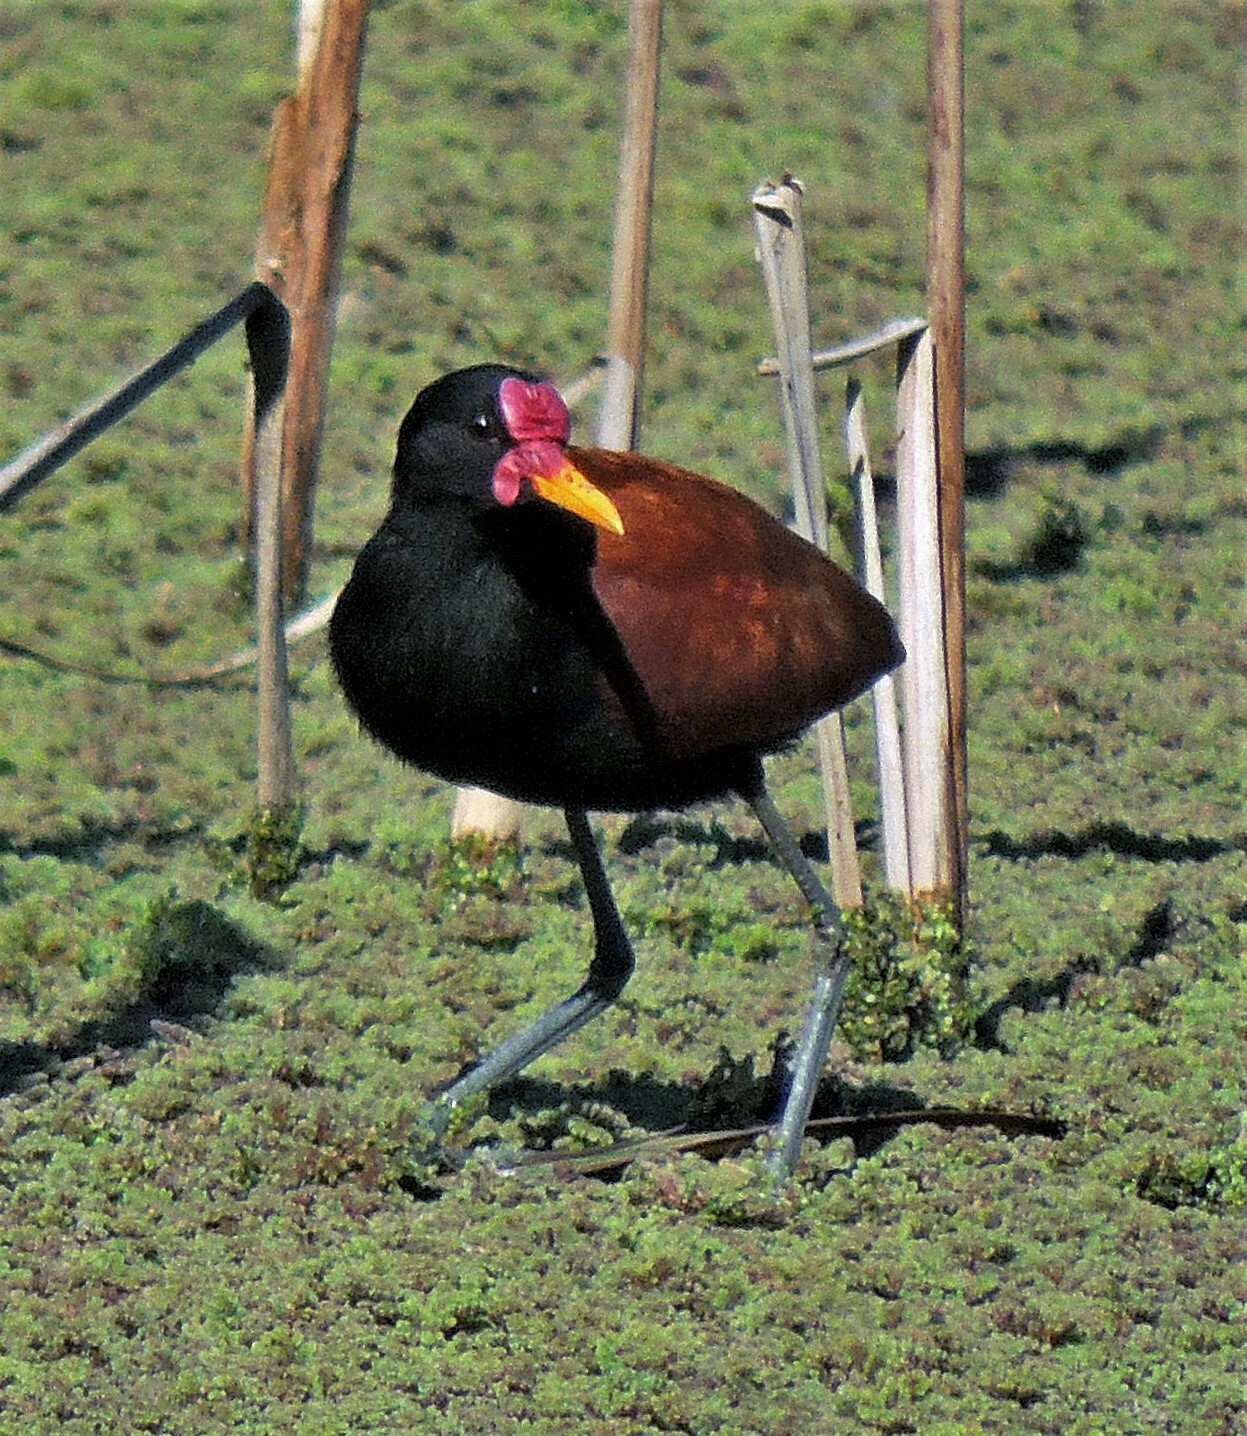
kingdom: Animalia
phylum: Chordata
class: Aves
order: Charadriiformes
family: Jacanidae
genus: Jacana
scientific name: Jacana jacana
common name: Wattled jacana
